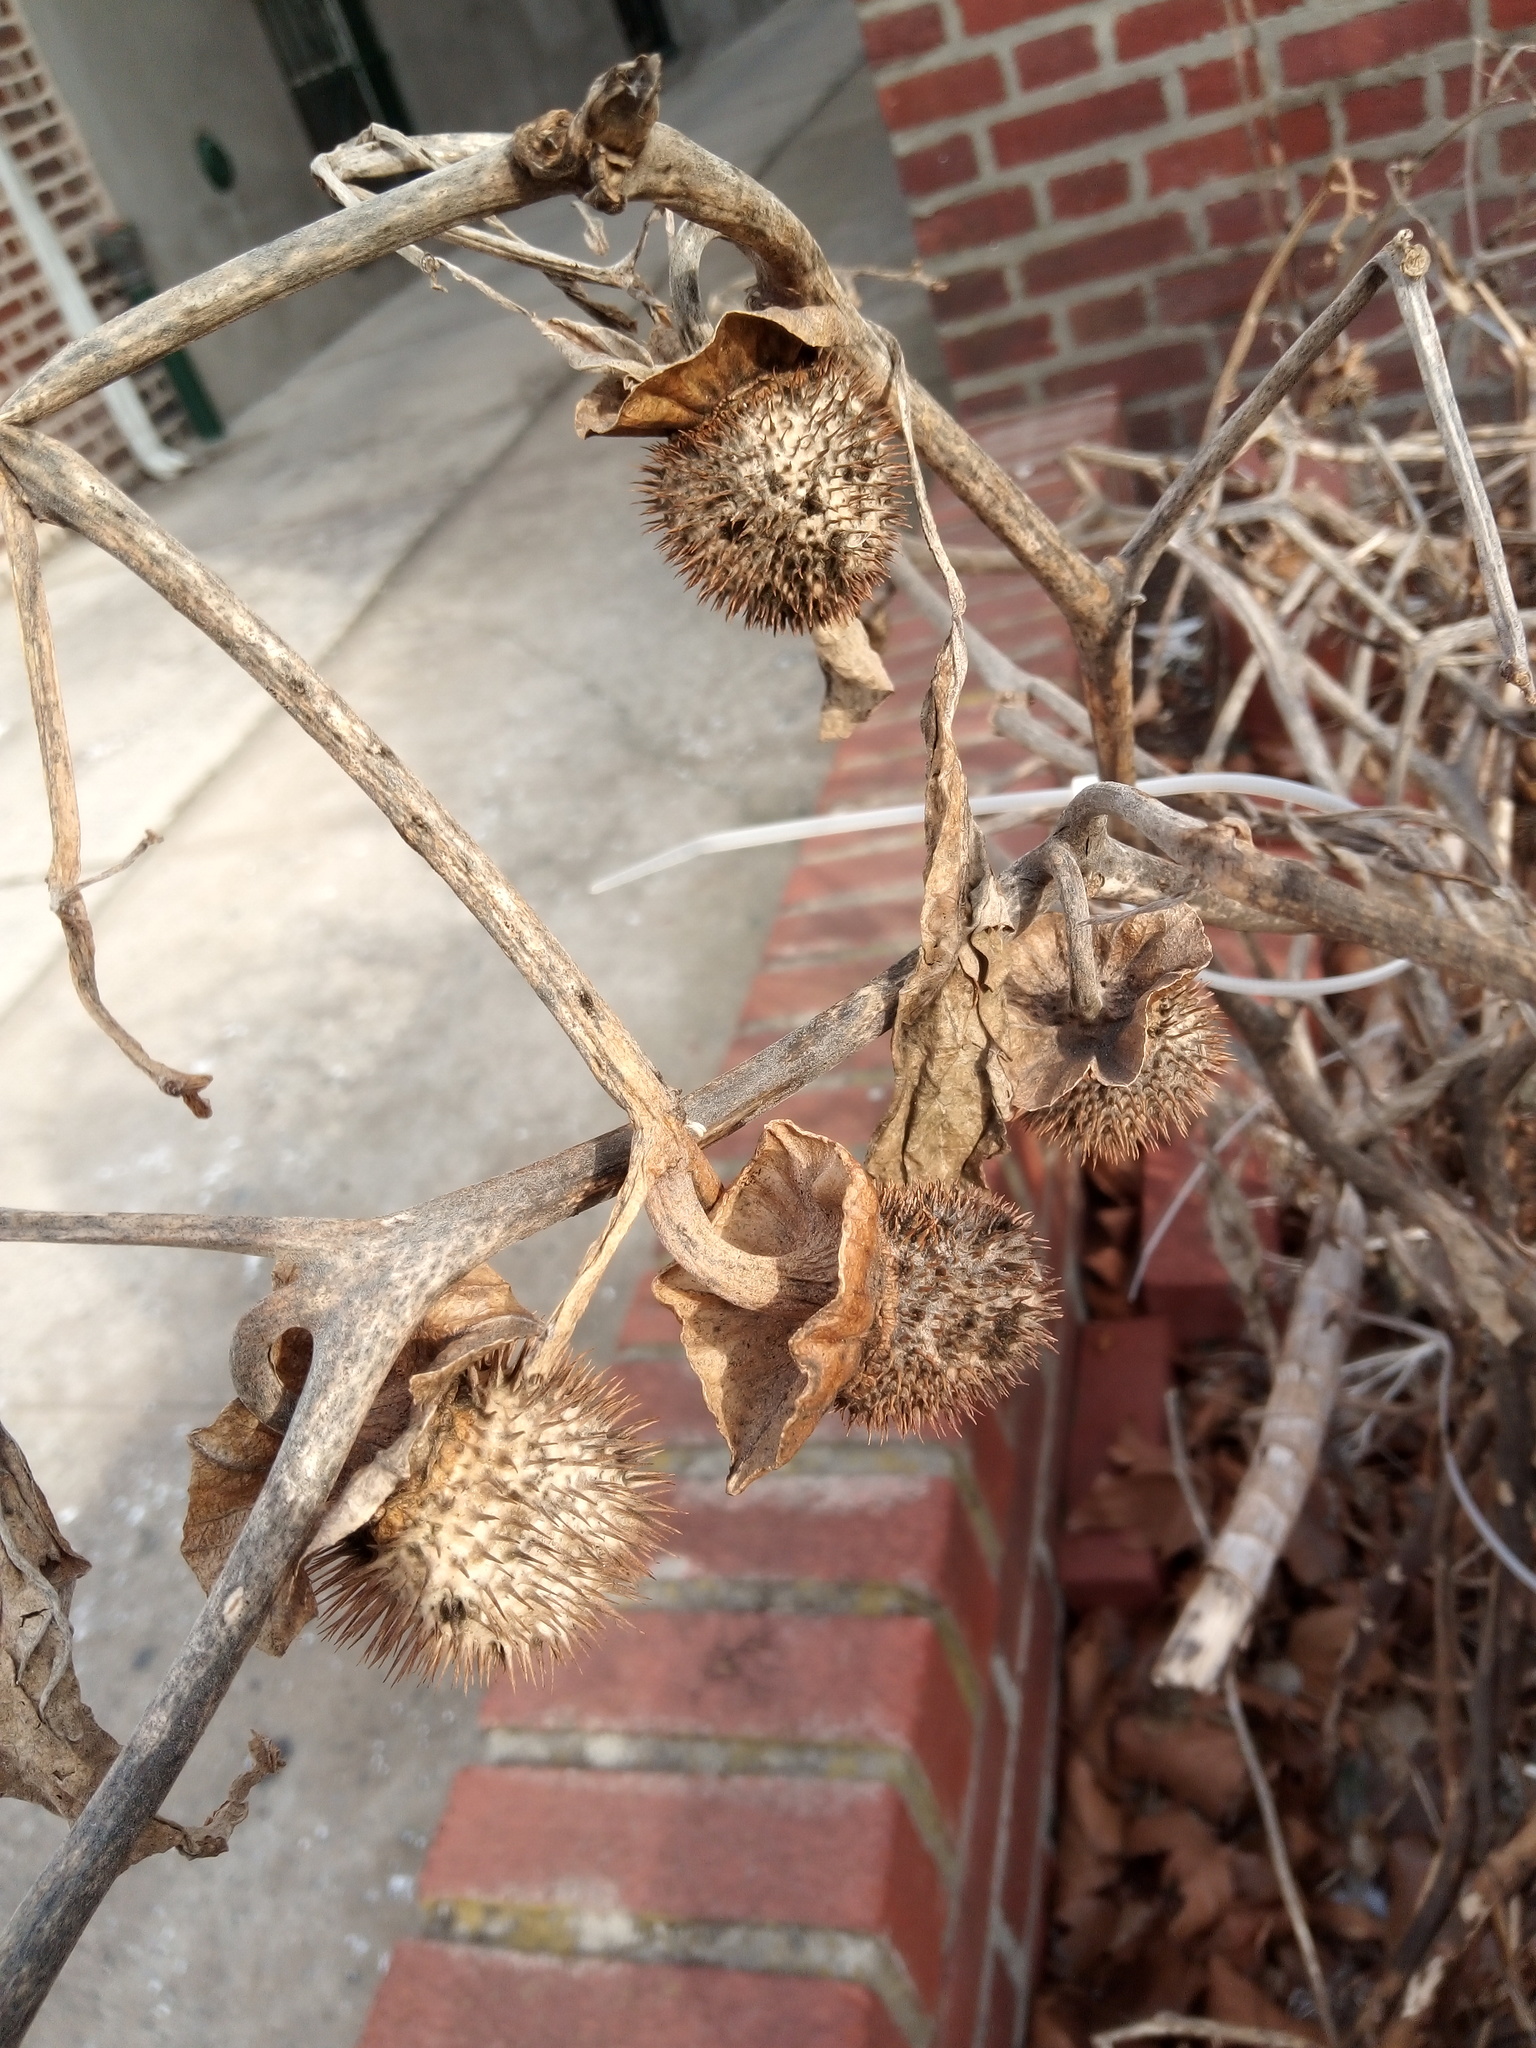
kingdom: Plantae
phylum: Tracheophyta
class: Magnoliopsida
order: Solanales
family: Solanaceae
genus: Datura
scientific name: Datura wrightii
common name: Sacred thorn-apple
